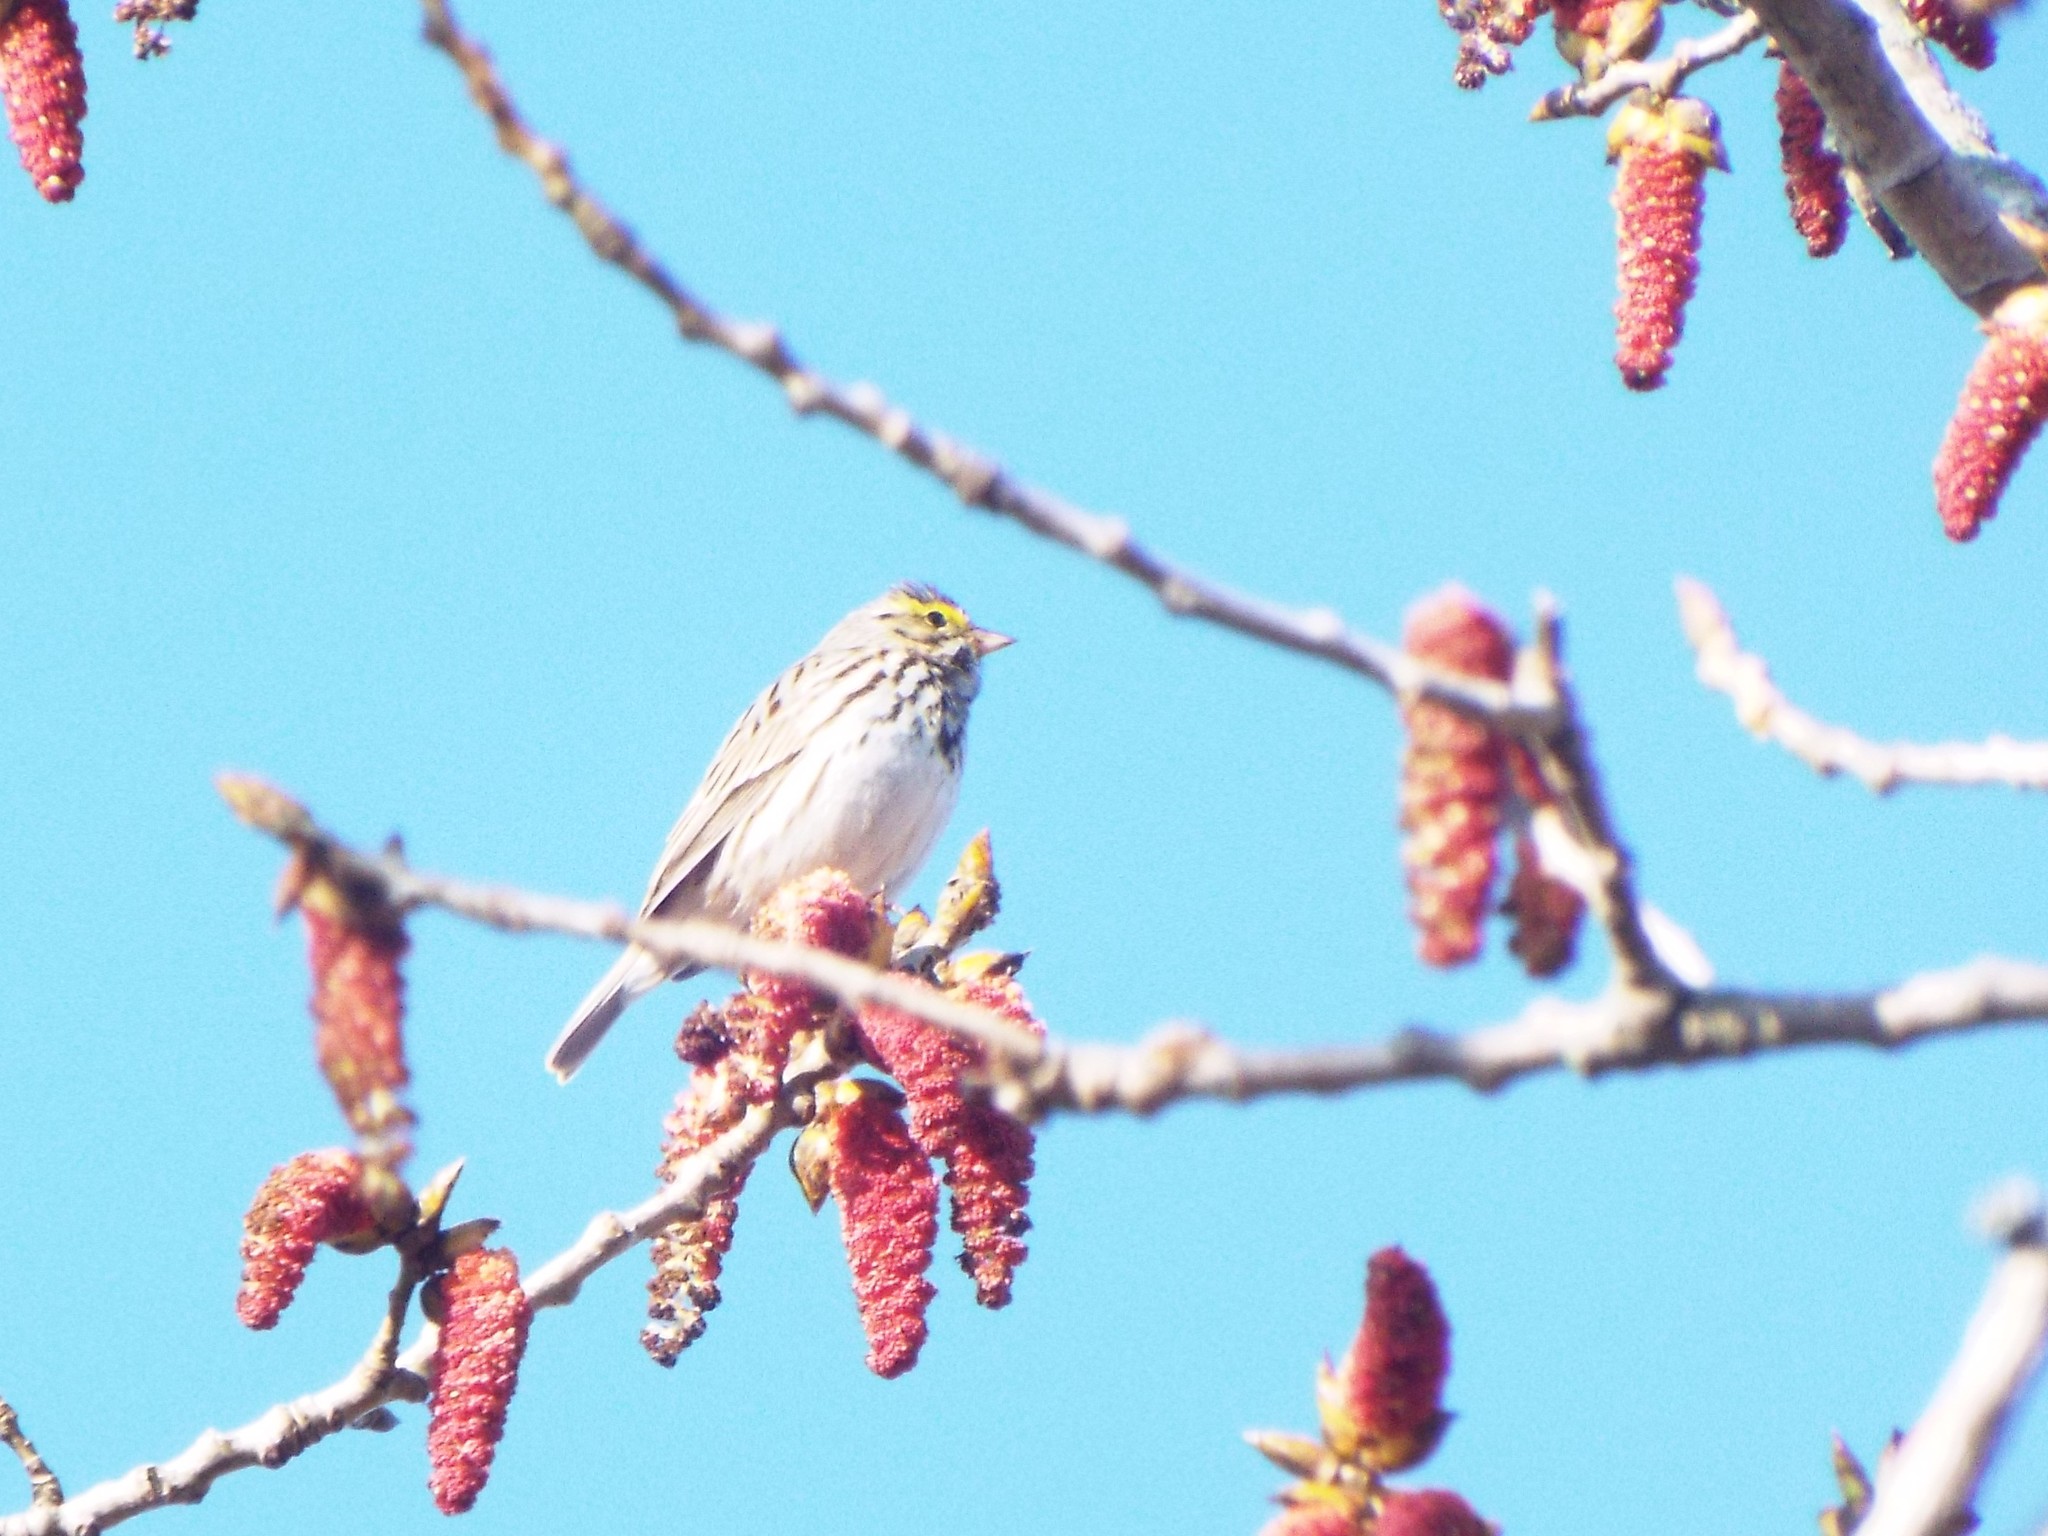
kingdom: Animalia
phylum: Chordata
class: Aves
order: Passeriformes
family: Passerellidae
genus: Passerculus
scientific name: Passerculus sandwichensis
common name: Savannah sparrow
